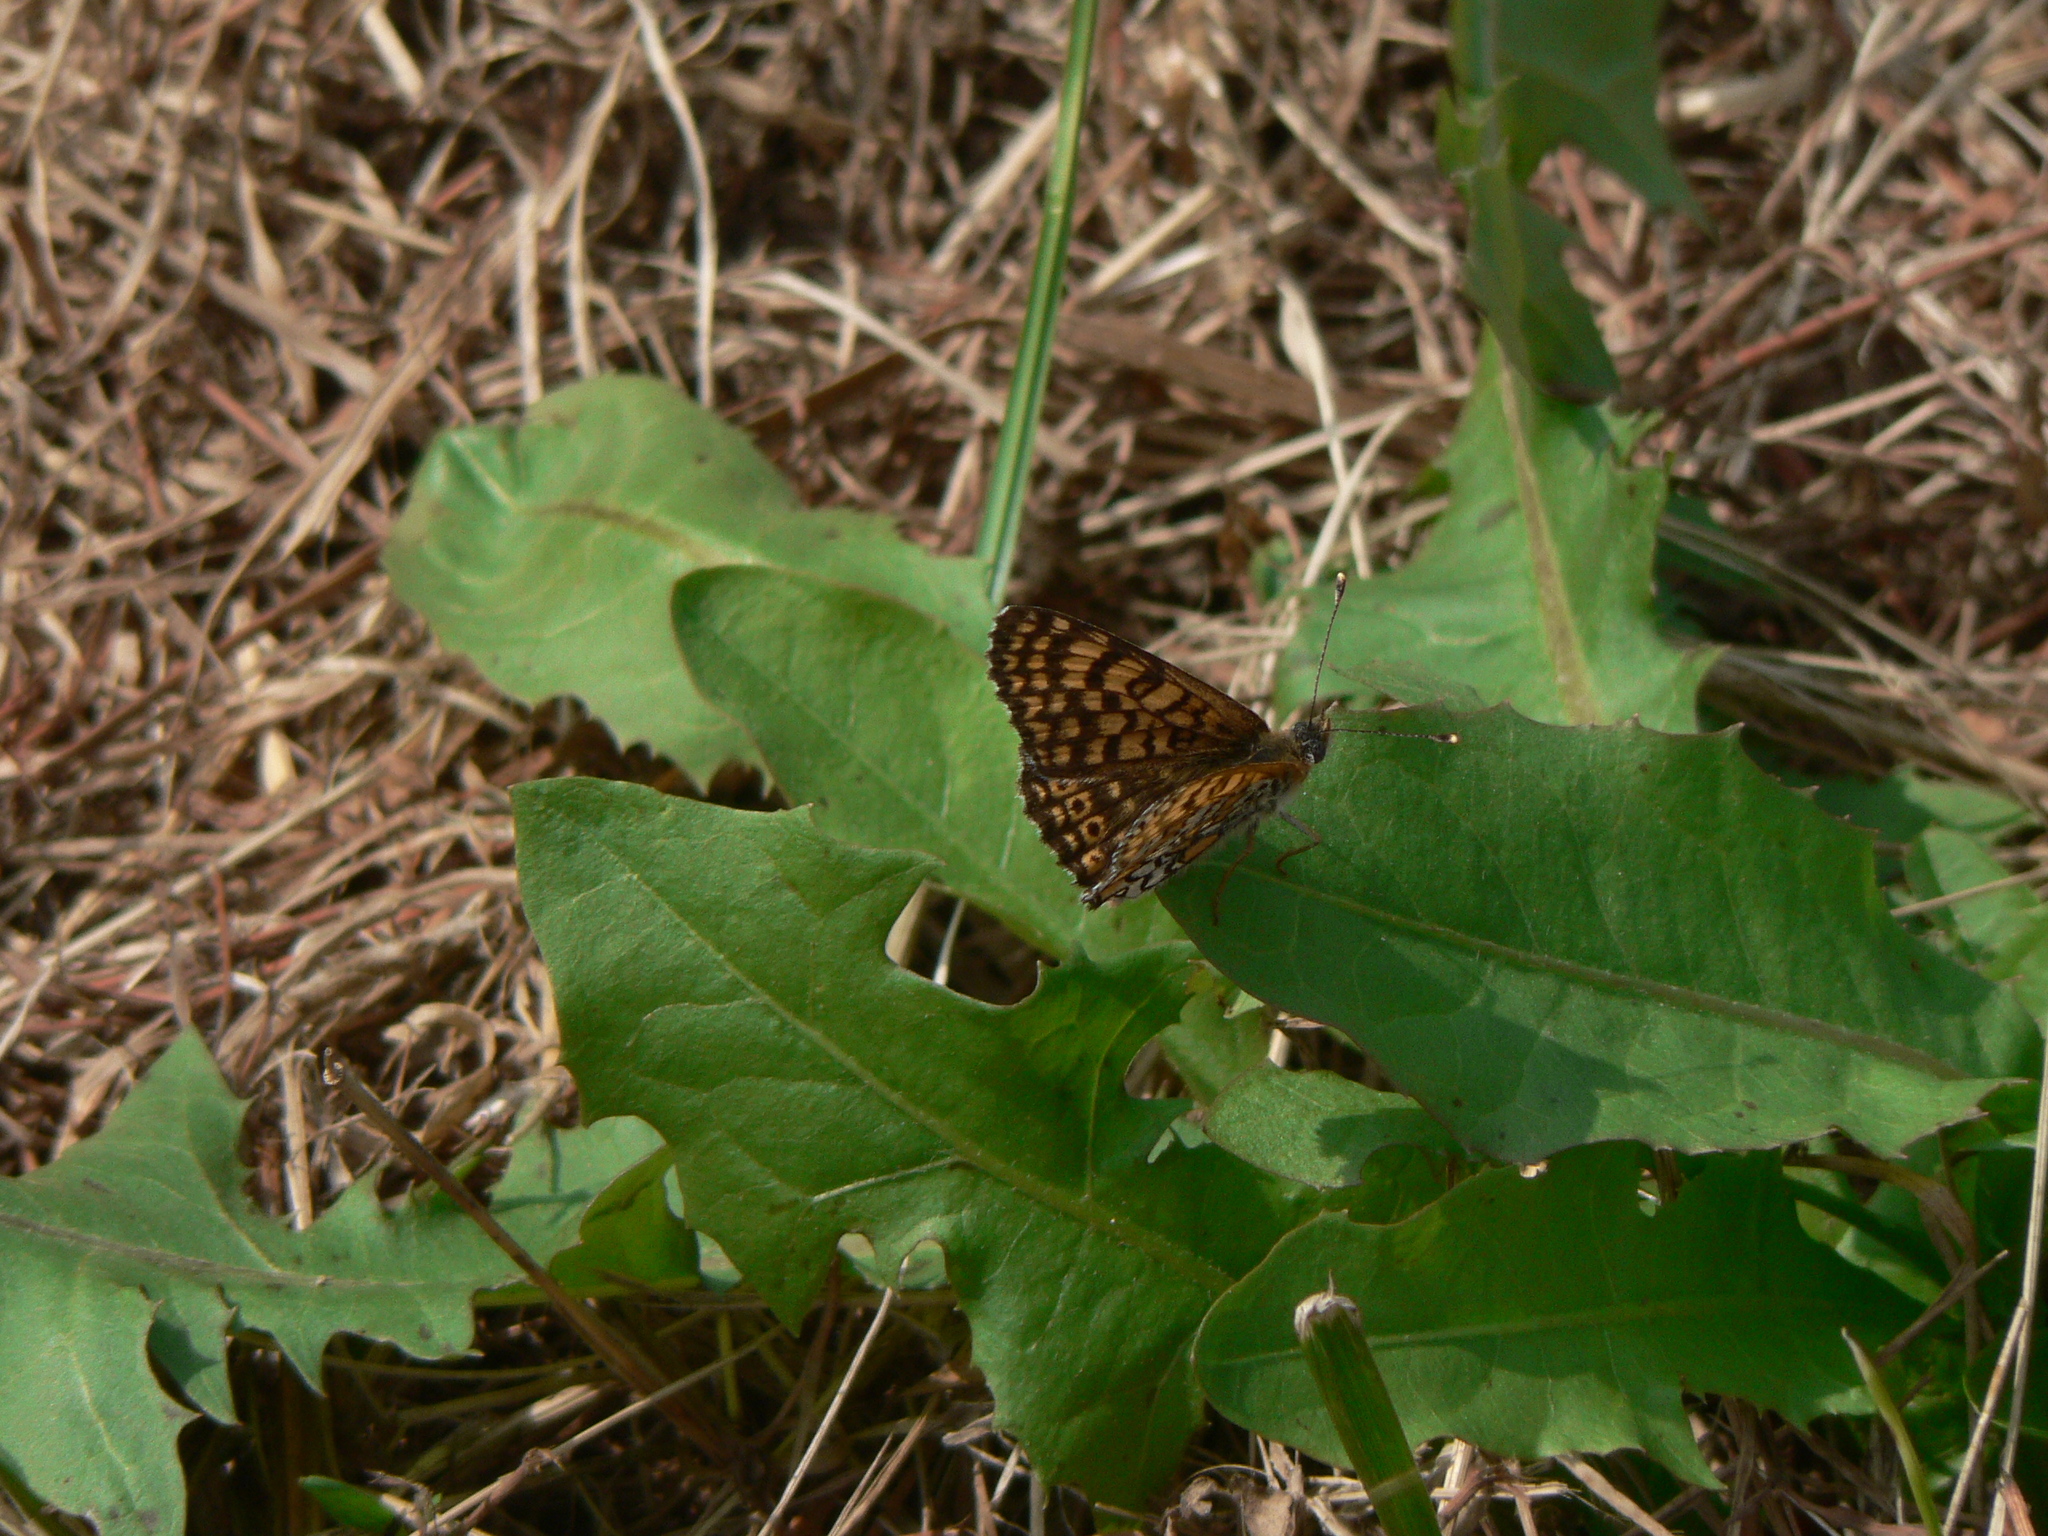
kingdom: Animalia
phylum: Arthropoda
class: Insecta
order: Lepidoptera
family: Nymphalidae
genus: Melitaea
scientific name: Melitaea cinxia
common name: Glanville fritillary
